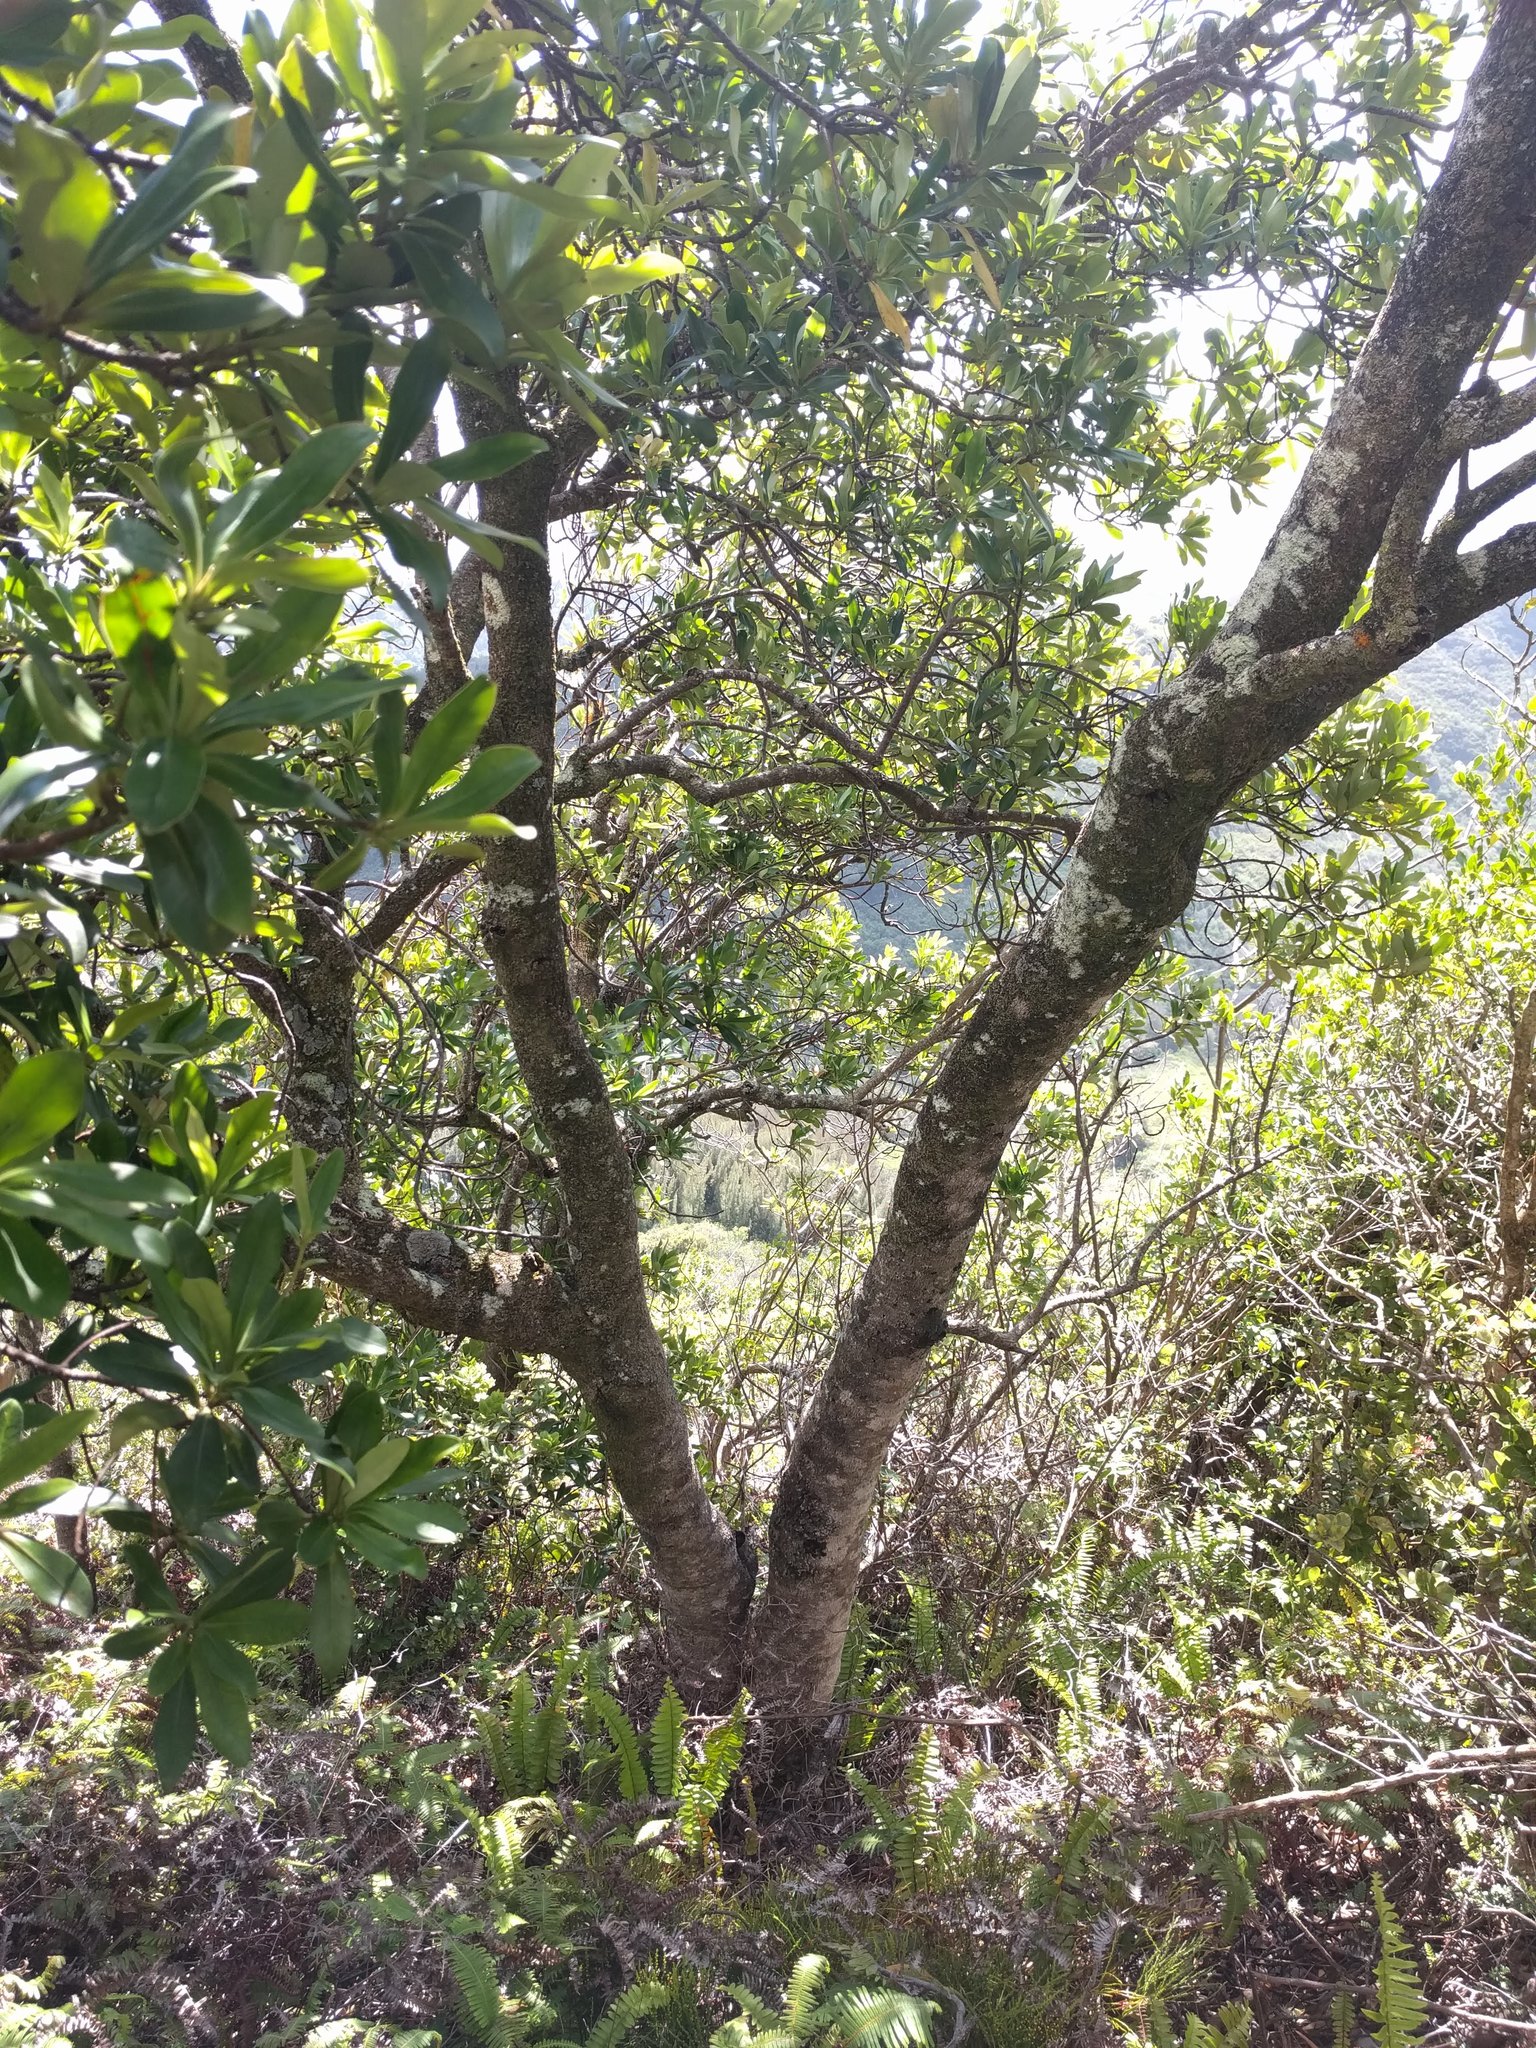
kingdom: Plantae
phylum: Tracheophyta
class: Magnoliopsida
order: Ericales
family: Primulaceae
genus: Myrsine
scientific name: Myrsine lessertiana
